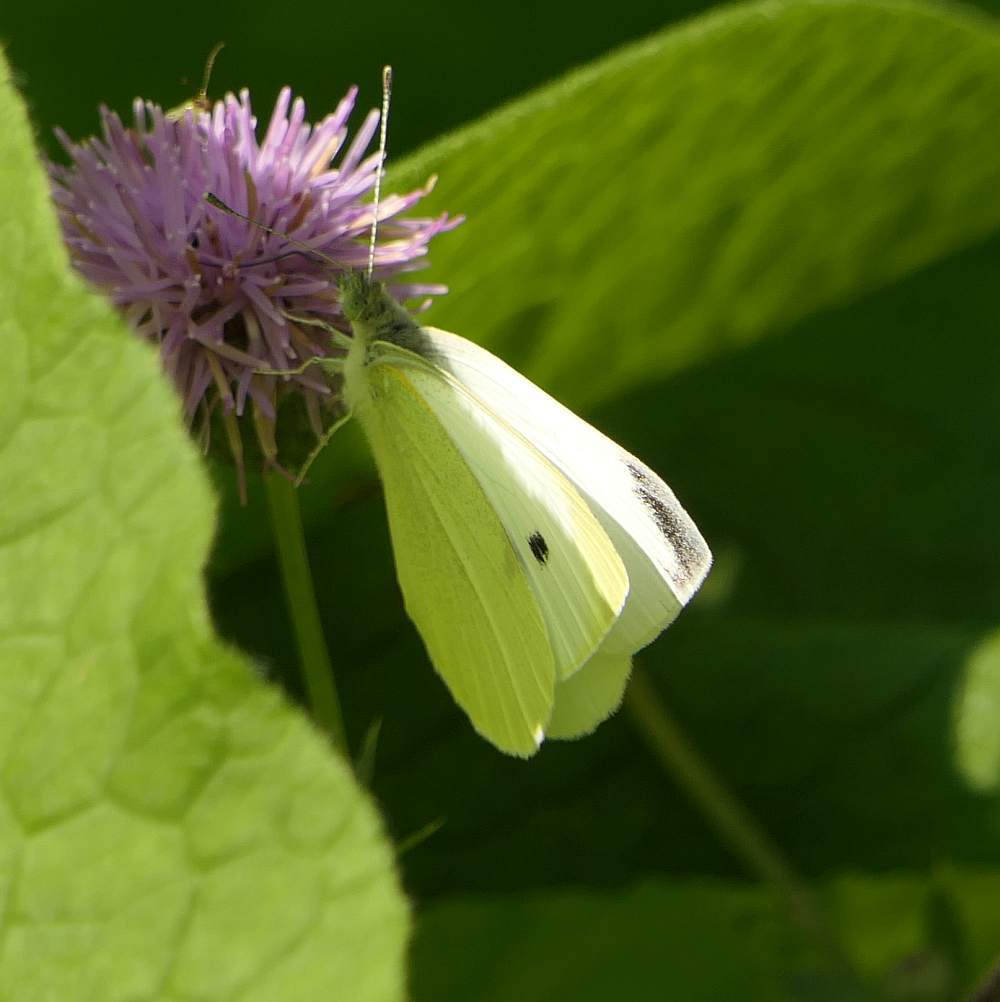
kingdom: Animalia
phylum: Arthropoda
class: Insecta
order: Lepidoptera
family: Pieridae
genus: Pieris
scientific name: Pieris rapae
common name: Small white
